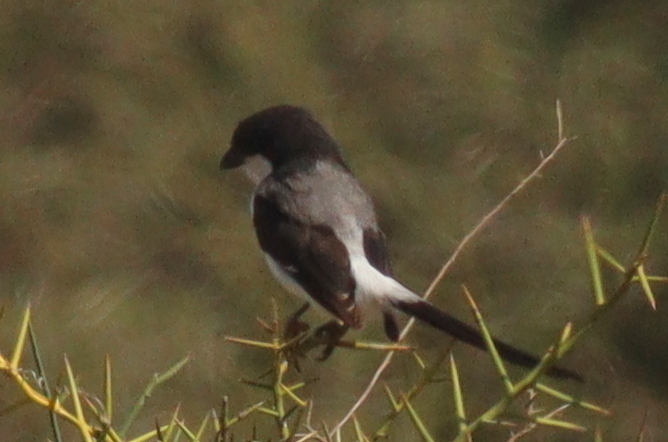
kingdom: Animalia
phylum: Chordata
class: Aves
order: Passeriformes
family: Laniidae
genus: Lanius
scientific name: Lanius cabanisi
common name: Long-tailed fiscal
